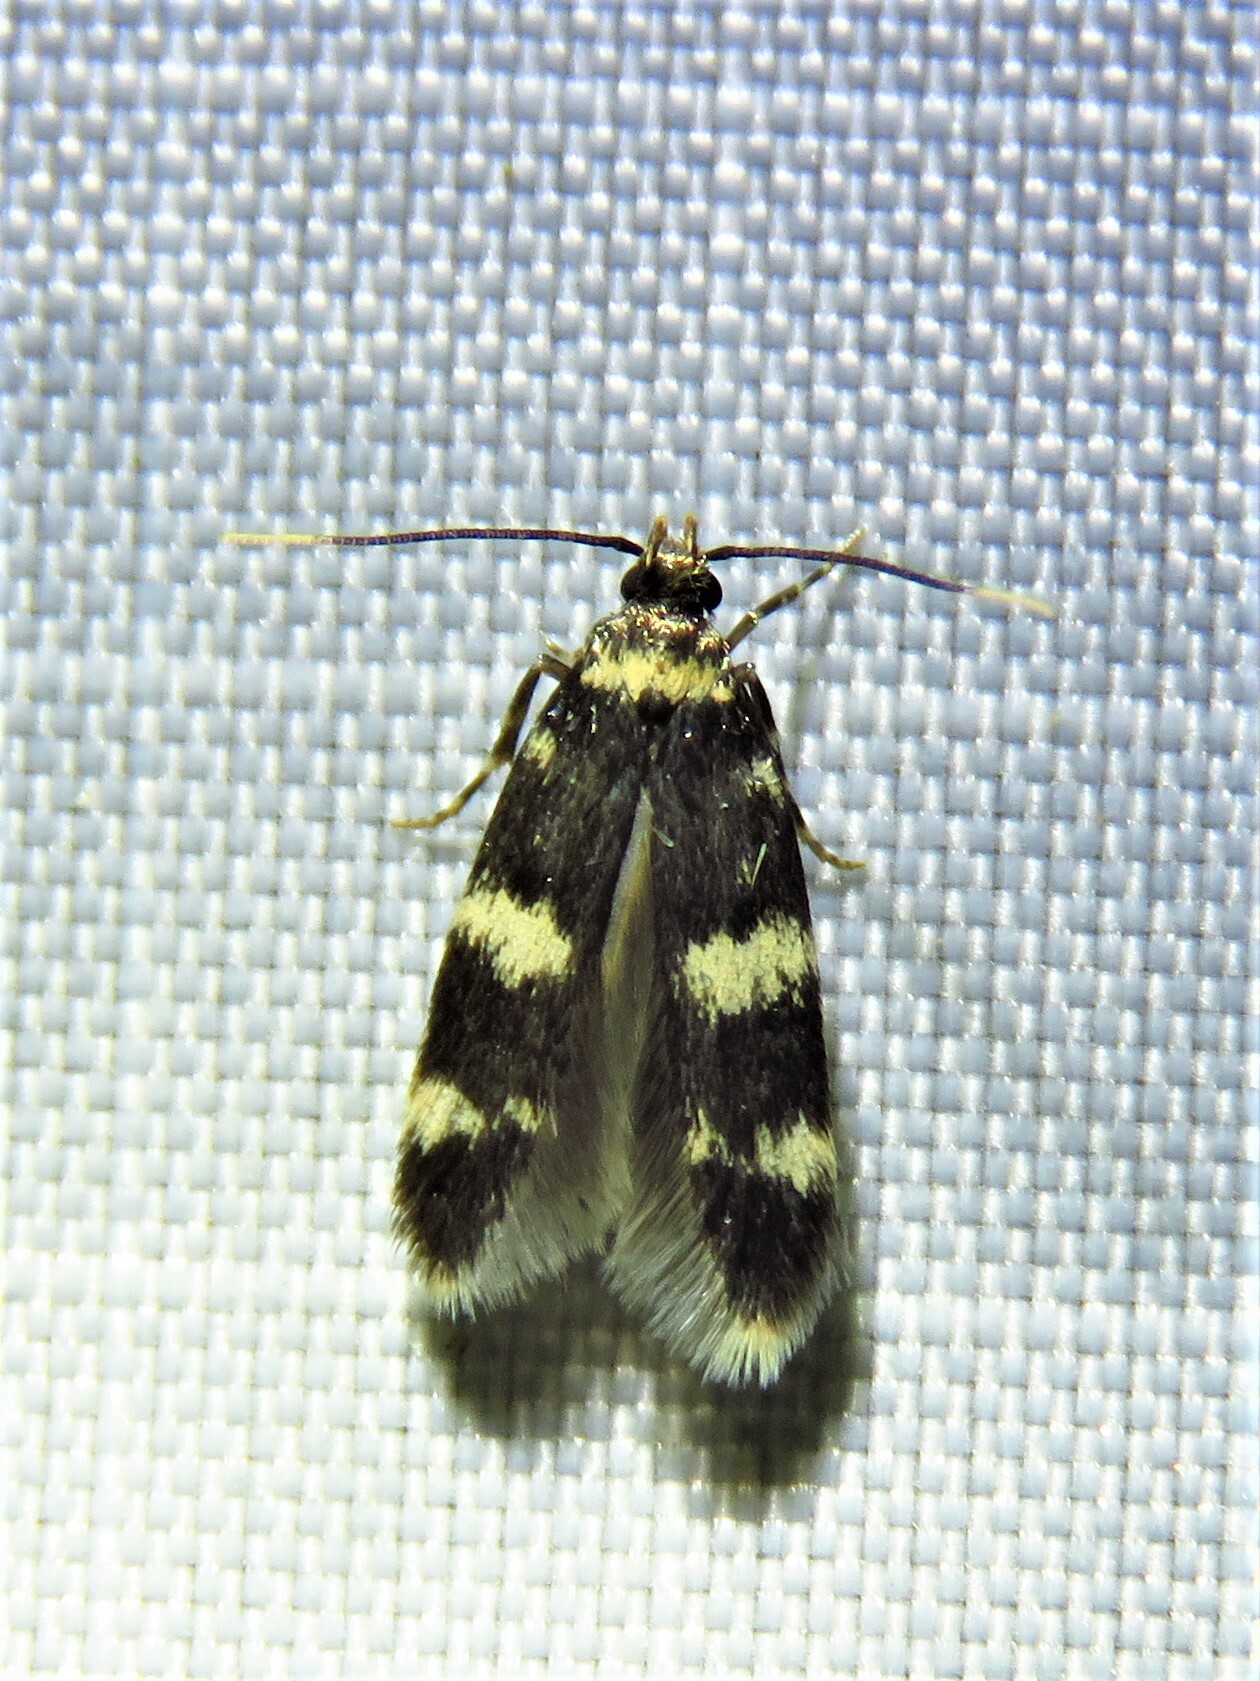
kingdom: Animalia
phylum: Arthropoda
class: Insecta
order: Lepidoptera
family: Autostichidae
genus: Oegoconia
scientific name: Oegoconia quadripuncta
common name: Four-spotted obscure
